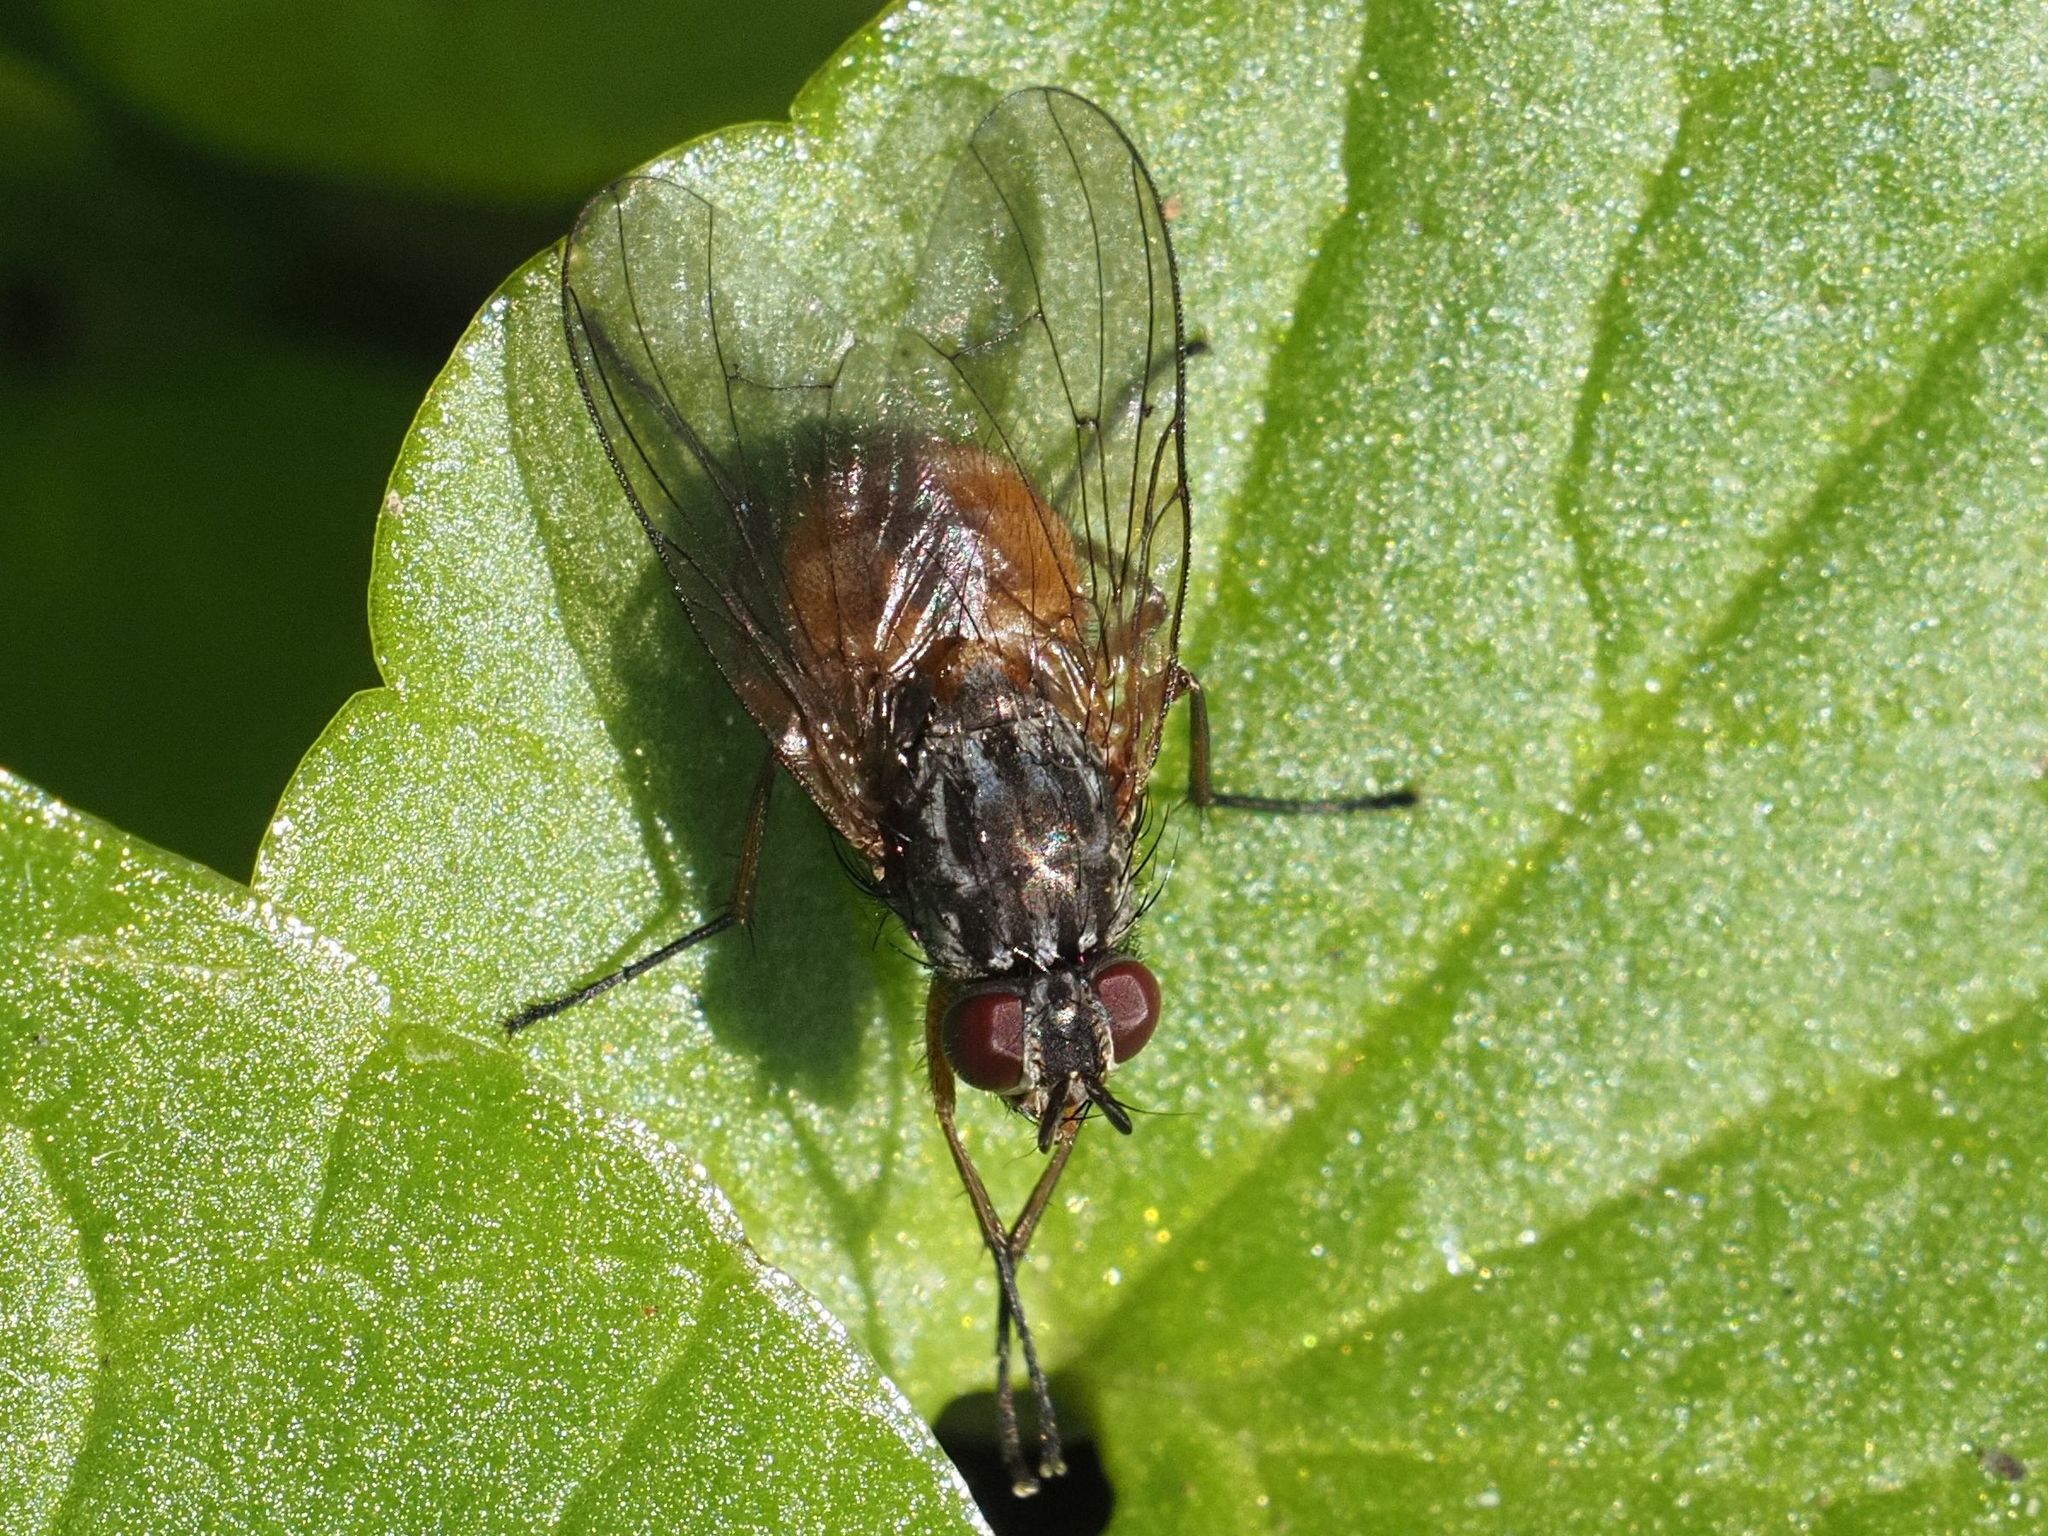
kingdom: Animalia
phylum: Arthropoda
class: Insecta
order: Diptera
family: Muscidae
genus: Phaonia
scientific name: Phaonia subventa
